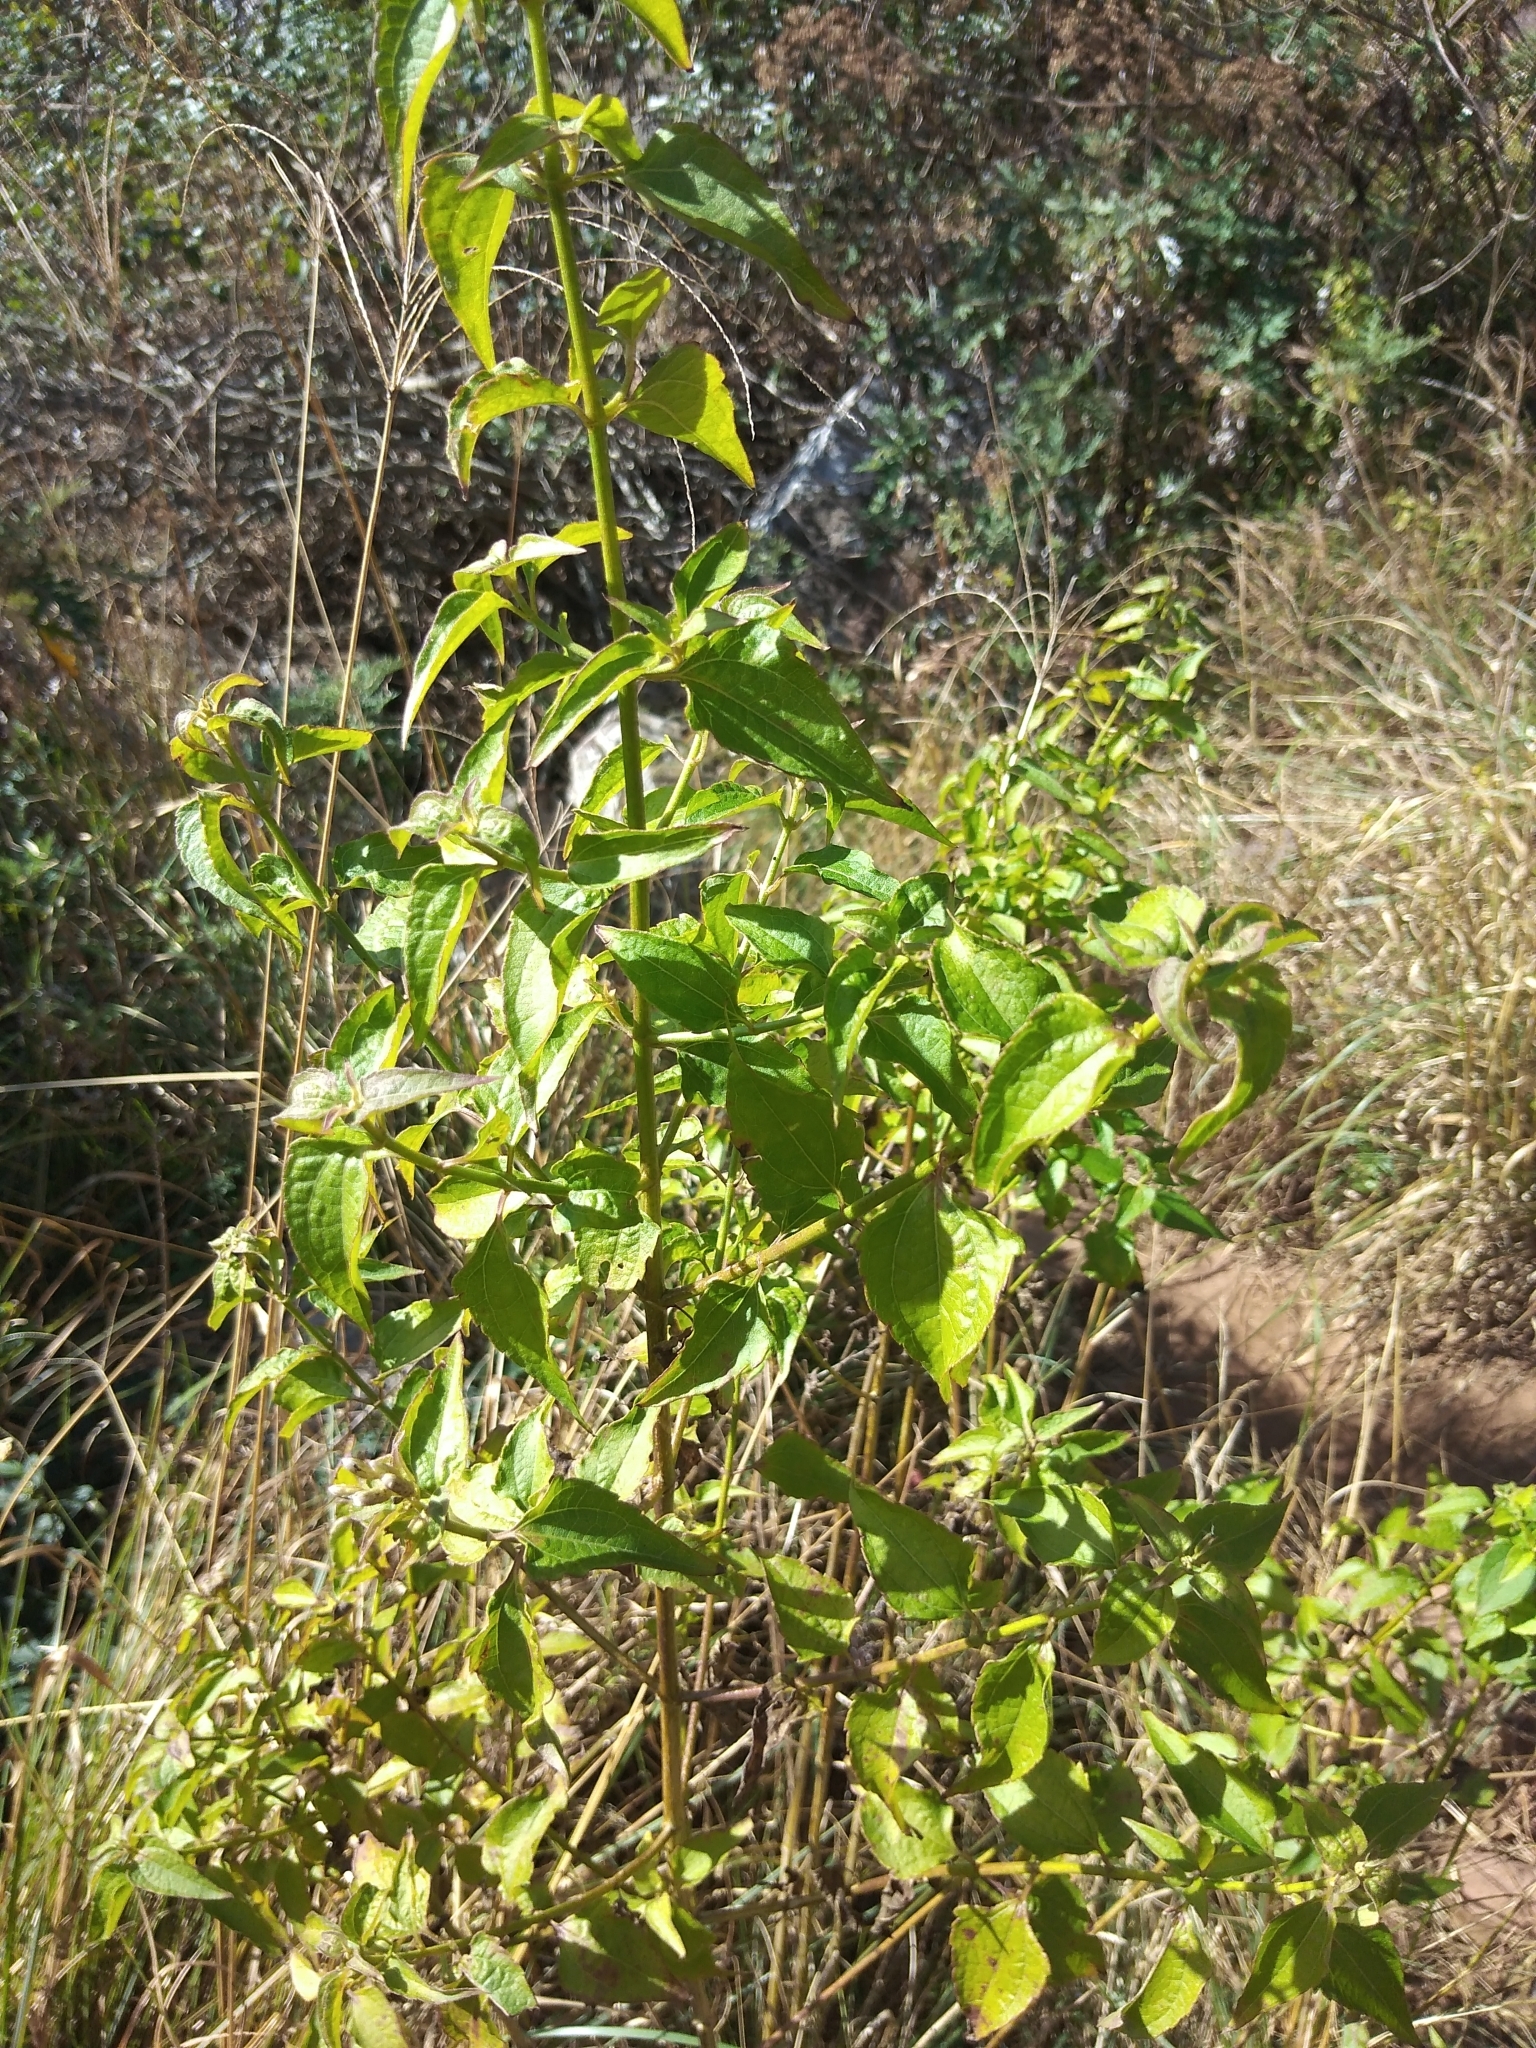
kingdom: Plantae
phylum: Tracheophyta
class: Magnoliopsida
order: Asterales
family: Asteraceae
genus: Chromolaena
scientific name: Chromolaena odorata
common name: Siamweed
